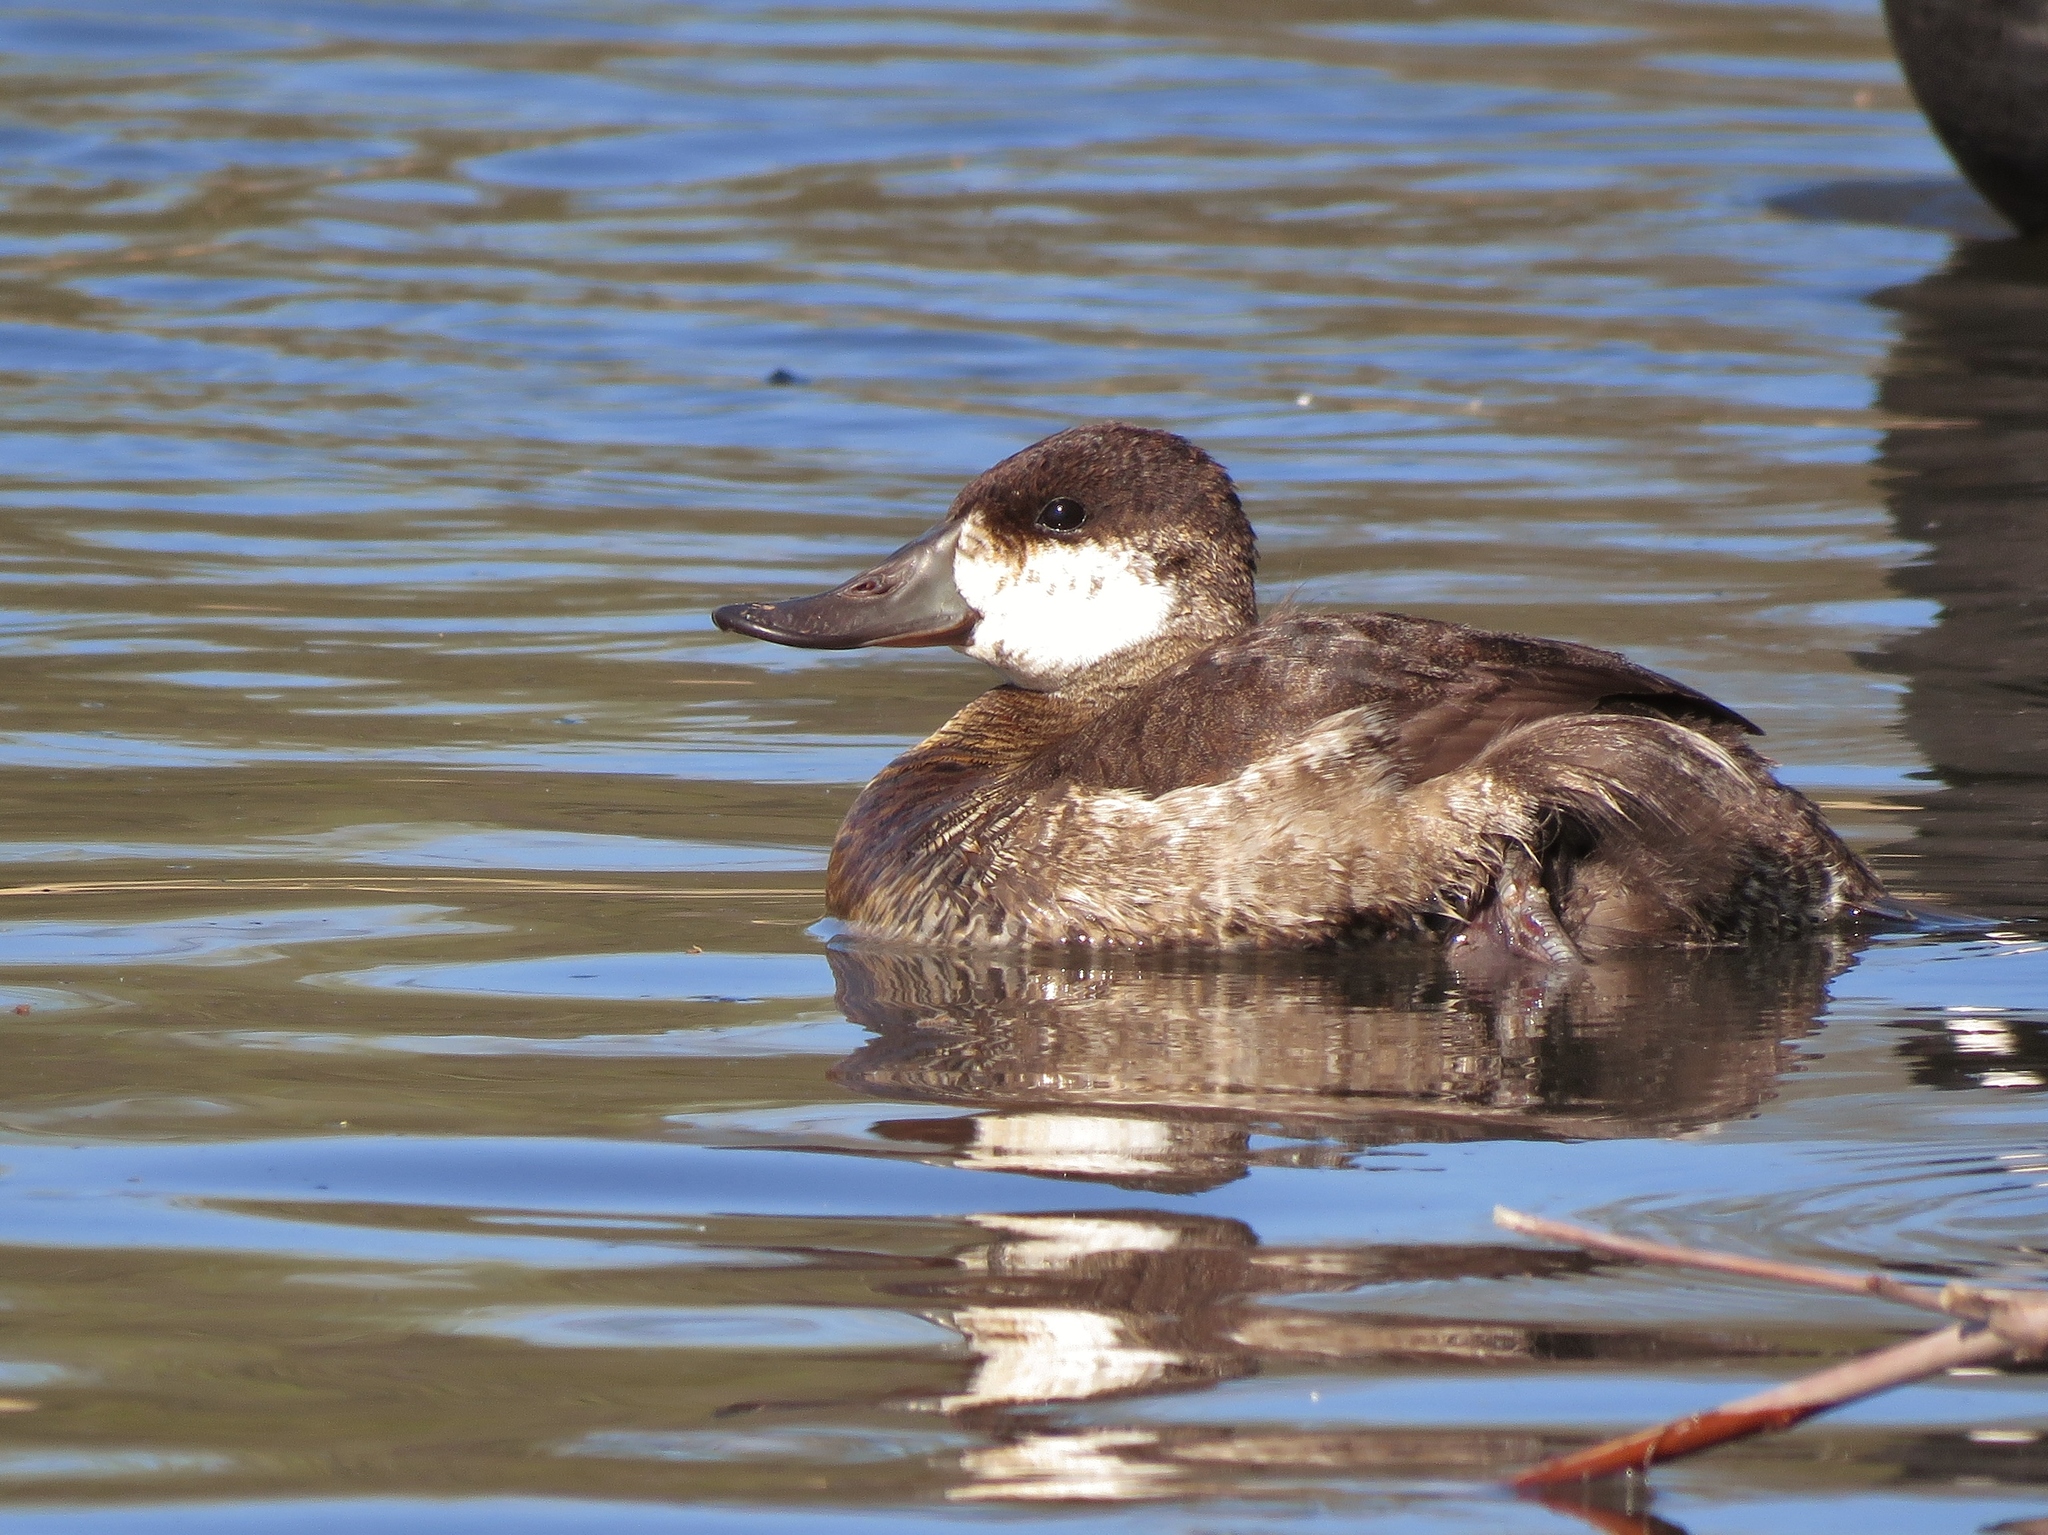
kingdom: Animalia
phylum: Chordata
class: Aves
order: Anseriformes
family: Anatidae
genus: Oxyura
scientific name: Oxyura jamaicensis
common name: Ruddy duck
